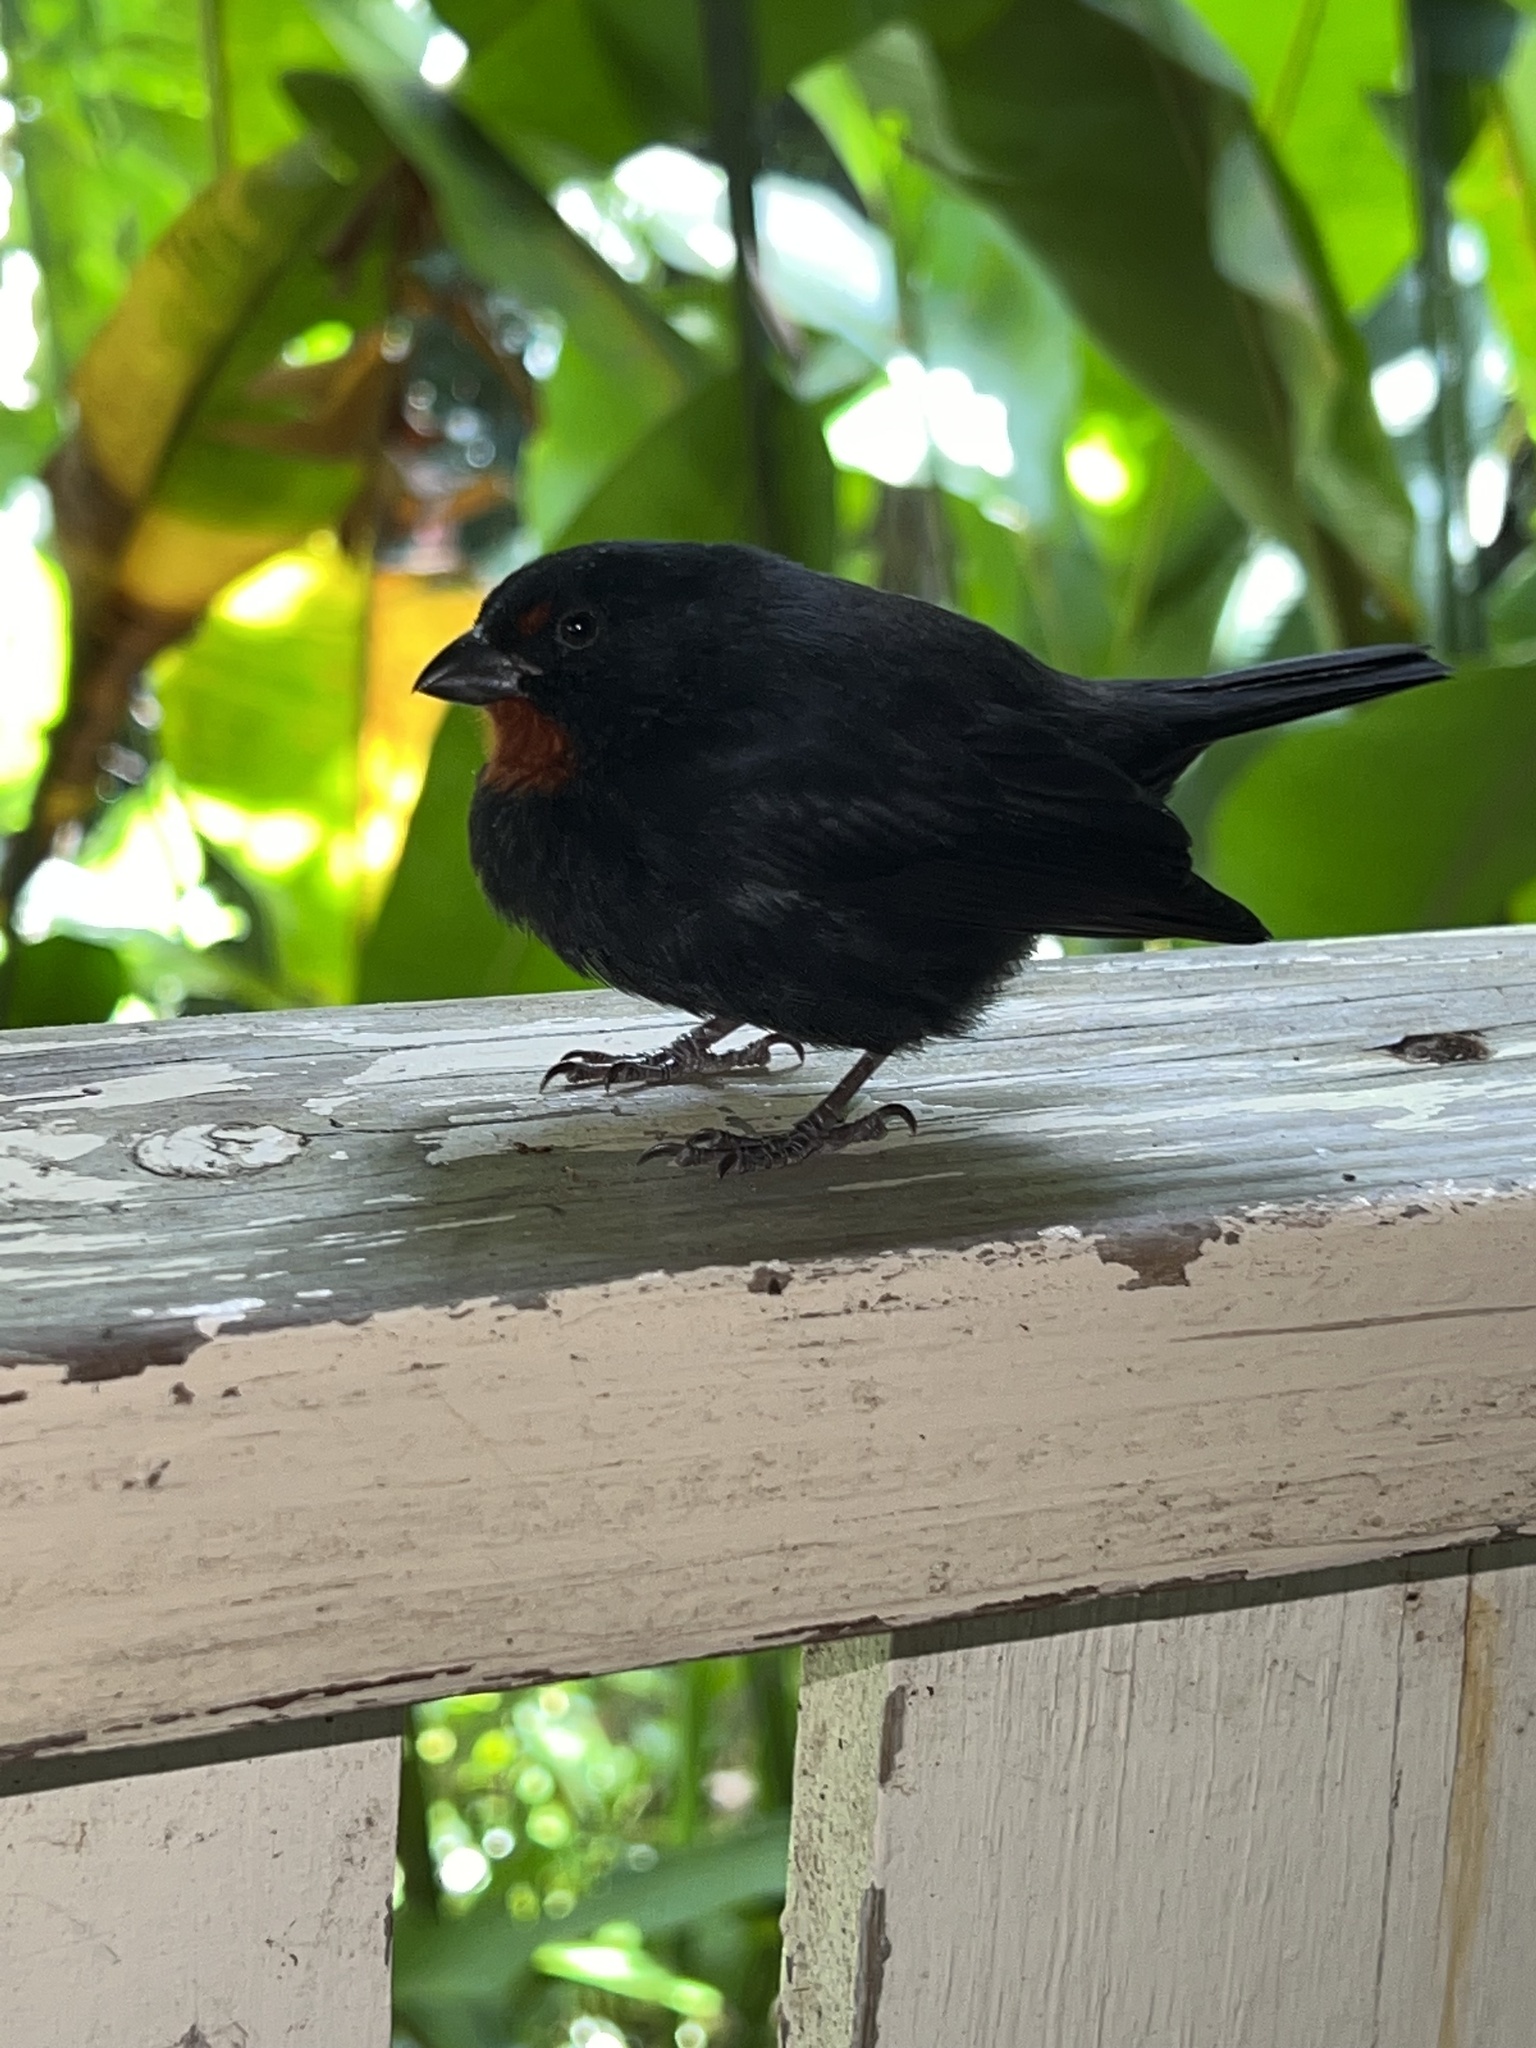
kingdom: Animalia
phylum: Chordata
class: Aves
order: Passeriformes
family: Thraupidae
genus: Loxigilla
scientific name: Loxigilla noctis
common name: Lesser antillean bullfinch
